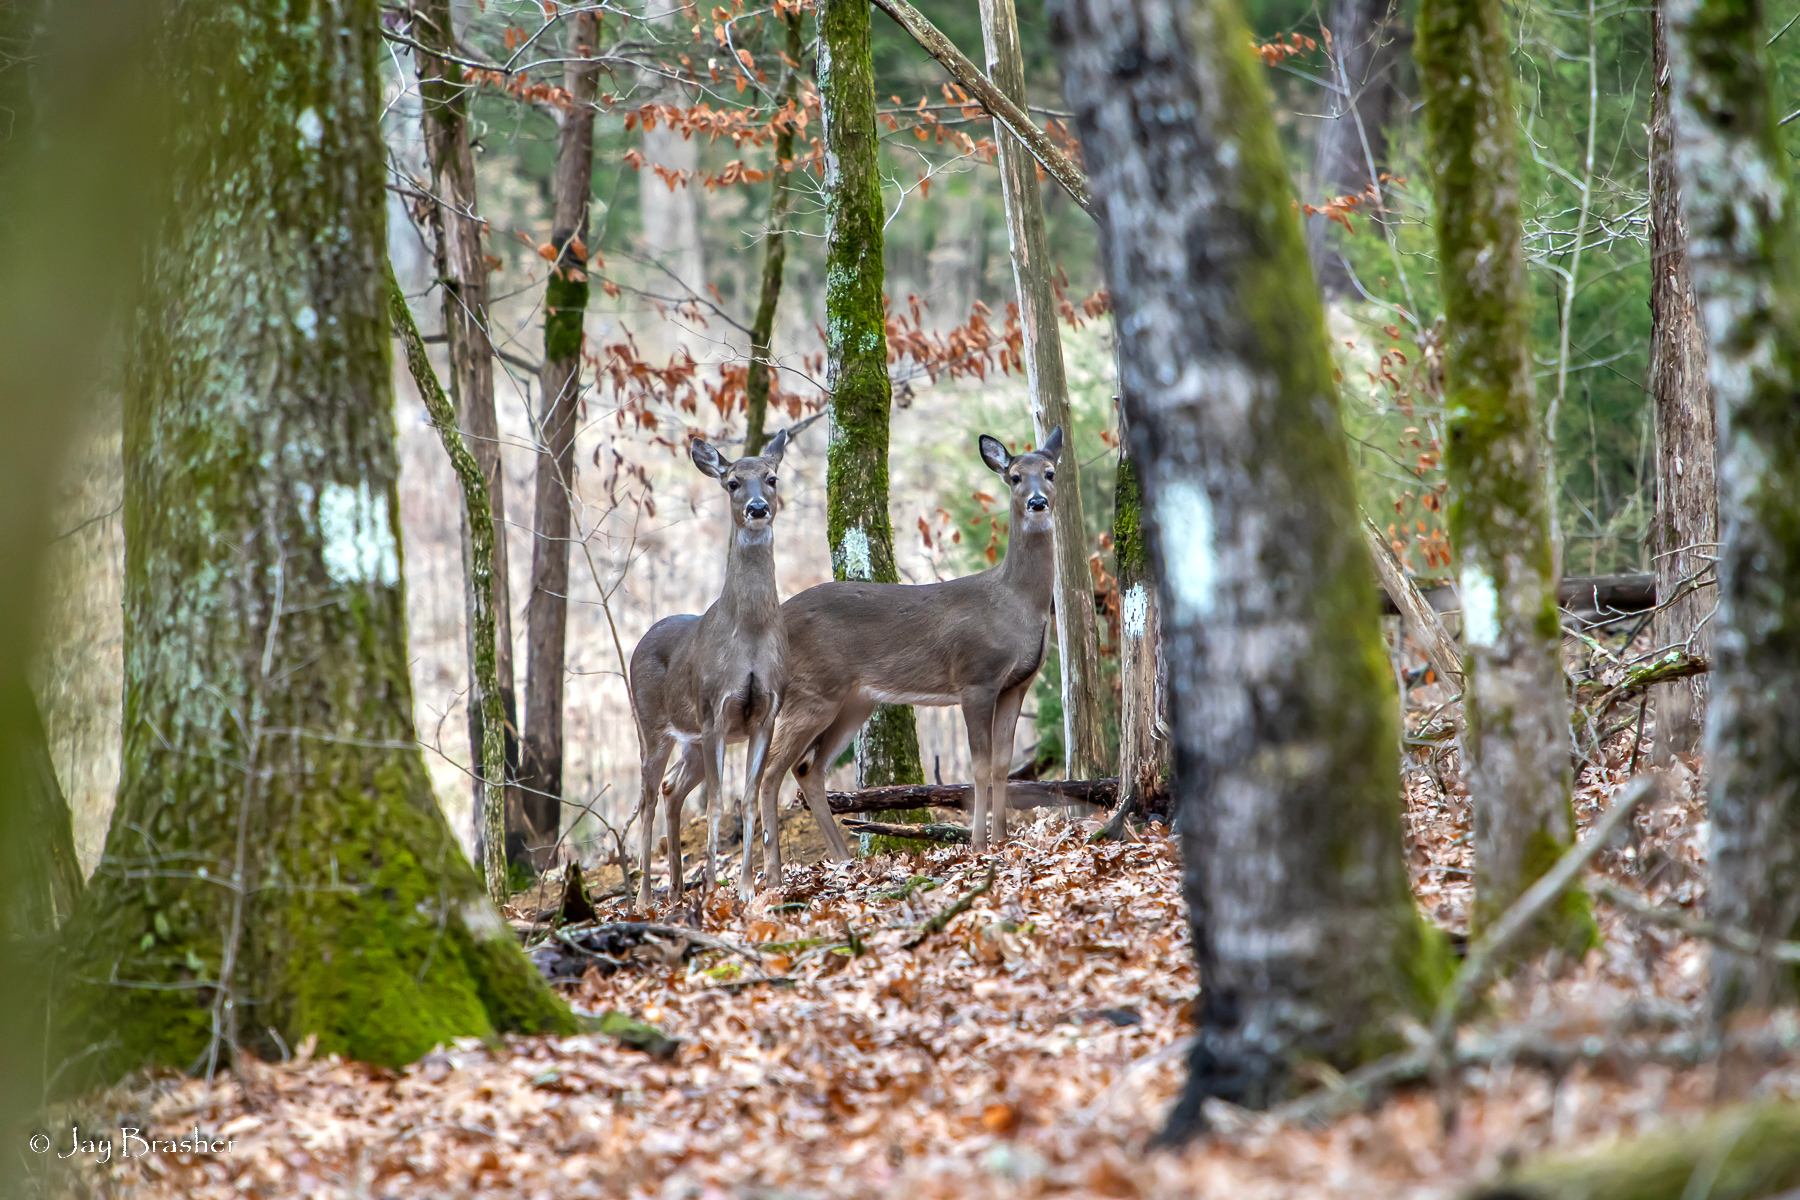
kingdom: Animalia
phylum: Chordata
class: Mammalia
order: Artiodactyla
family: Cervidae
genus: Odocoileus
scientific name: Odocoileus virginianus
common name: White-tailed deer
